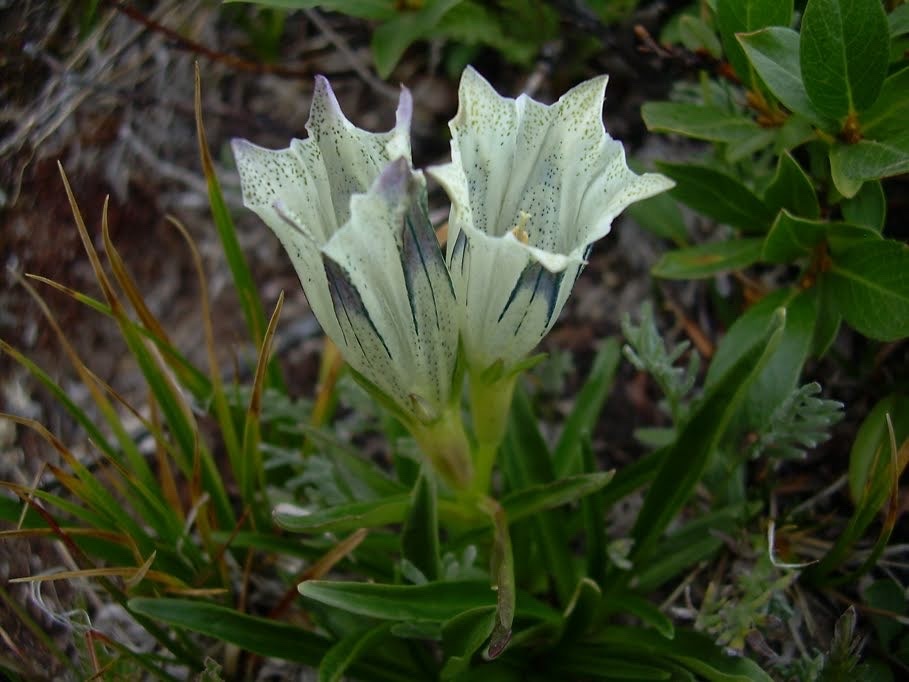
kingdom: Plantae
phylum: Tracheophyta
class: Magnoliopsida
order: Gentianales
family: Gentianaceae
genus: Gentiana
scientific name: Gentiana algida
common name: Arctic gentian
